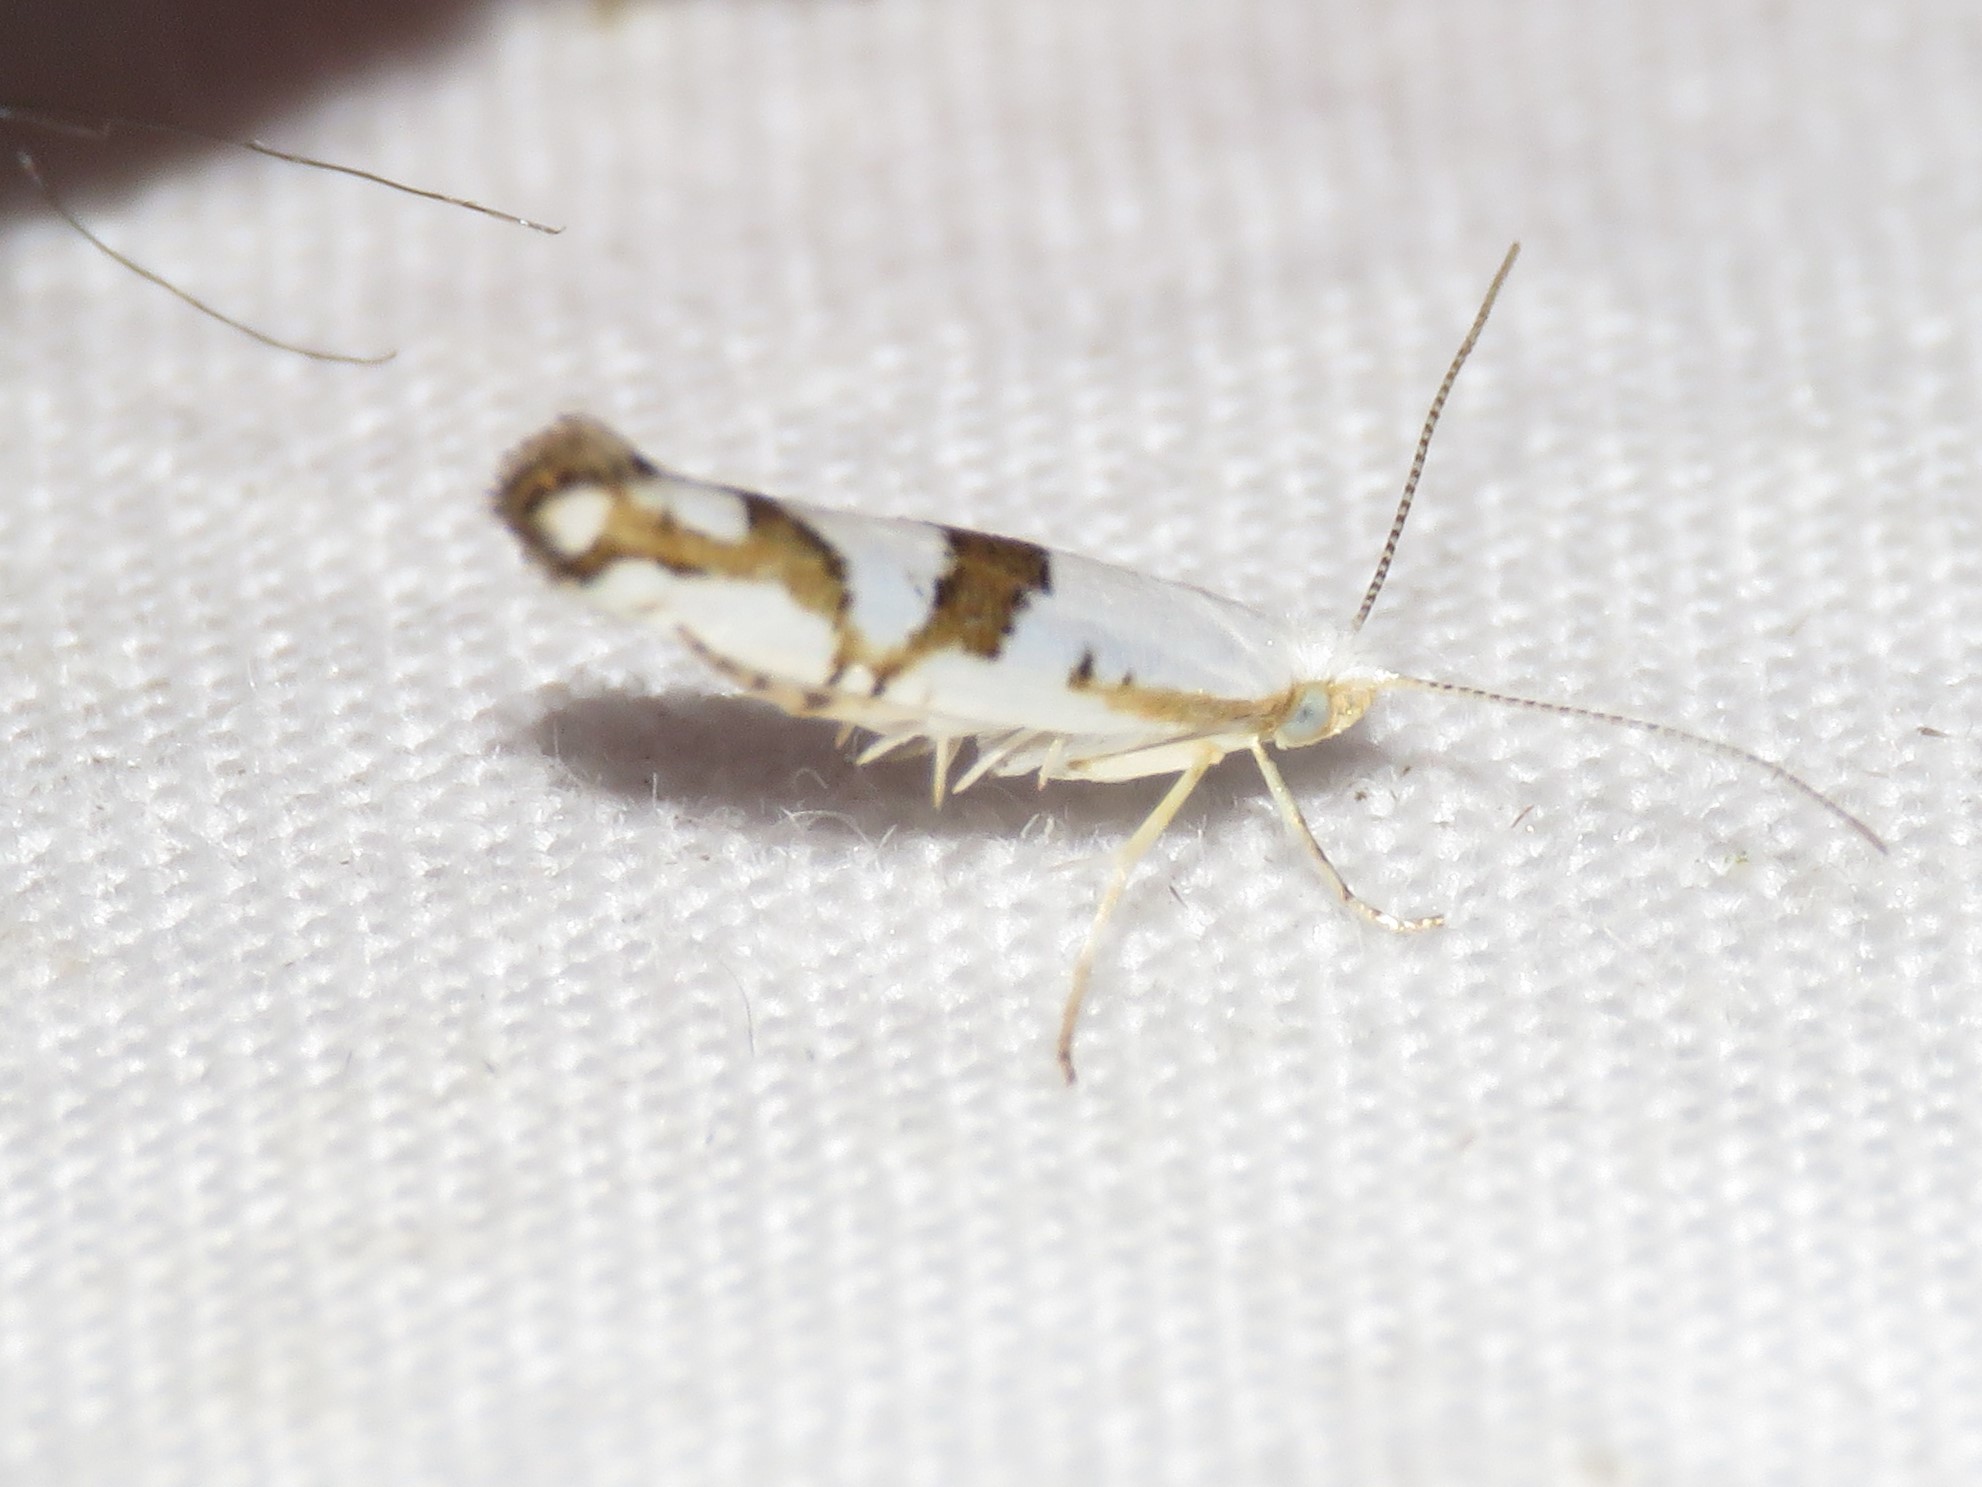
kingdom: Animalia
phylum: Arthropoda
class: Insecta
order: Lepidoptera
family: Argyresthiidae
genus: Argyresthia
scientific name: Argyresthia oreasella
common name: Cherry shoot borer moth
